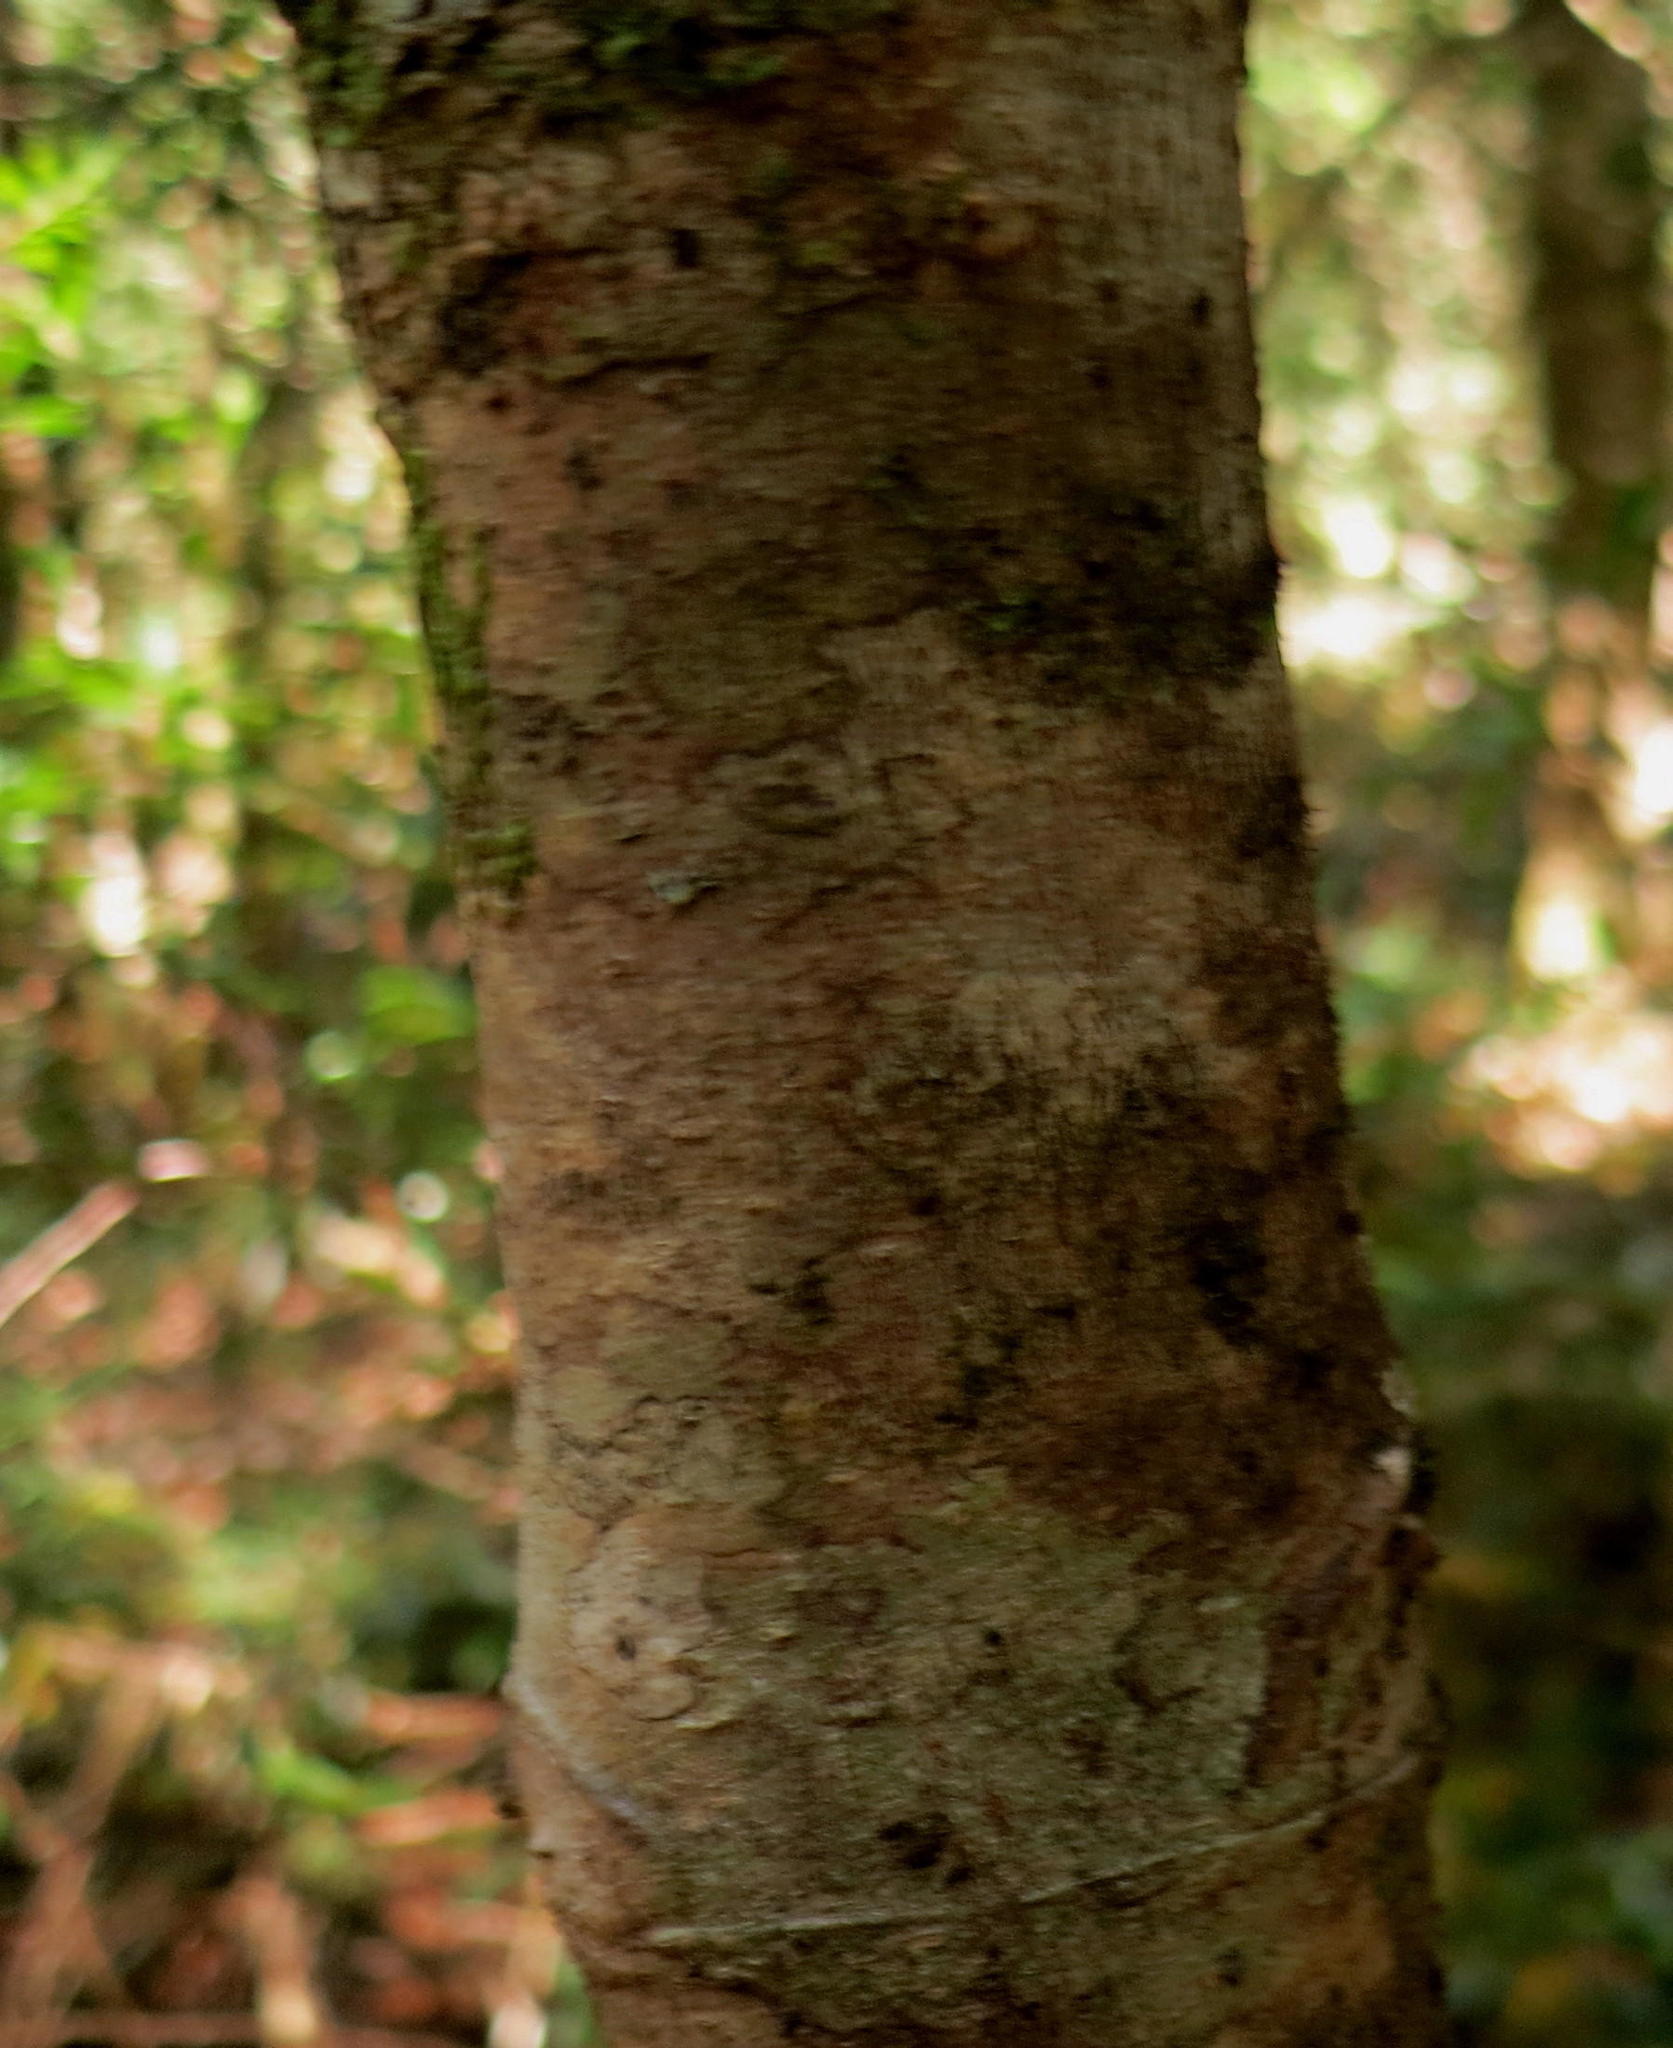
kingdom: Plantae
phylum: Tracheophyta
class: Magnoliopsida
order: Cornales
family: Curtisiaceae
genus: Curtisia
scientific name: Curtisia dentata
